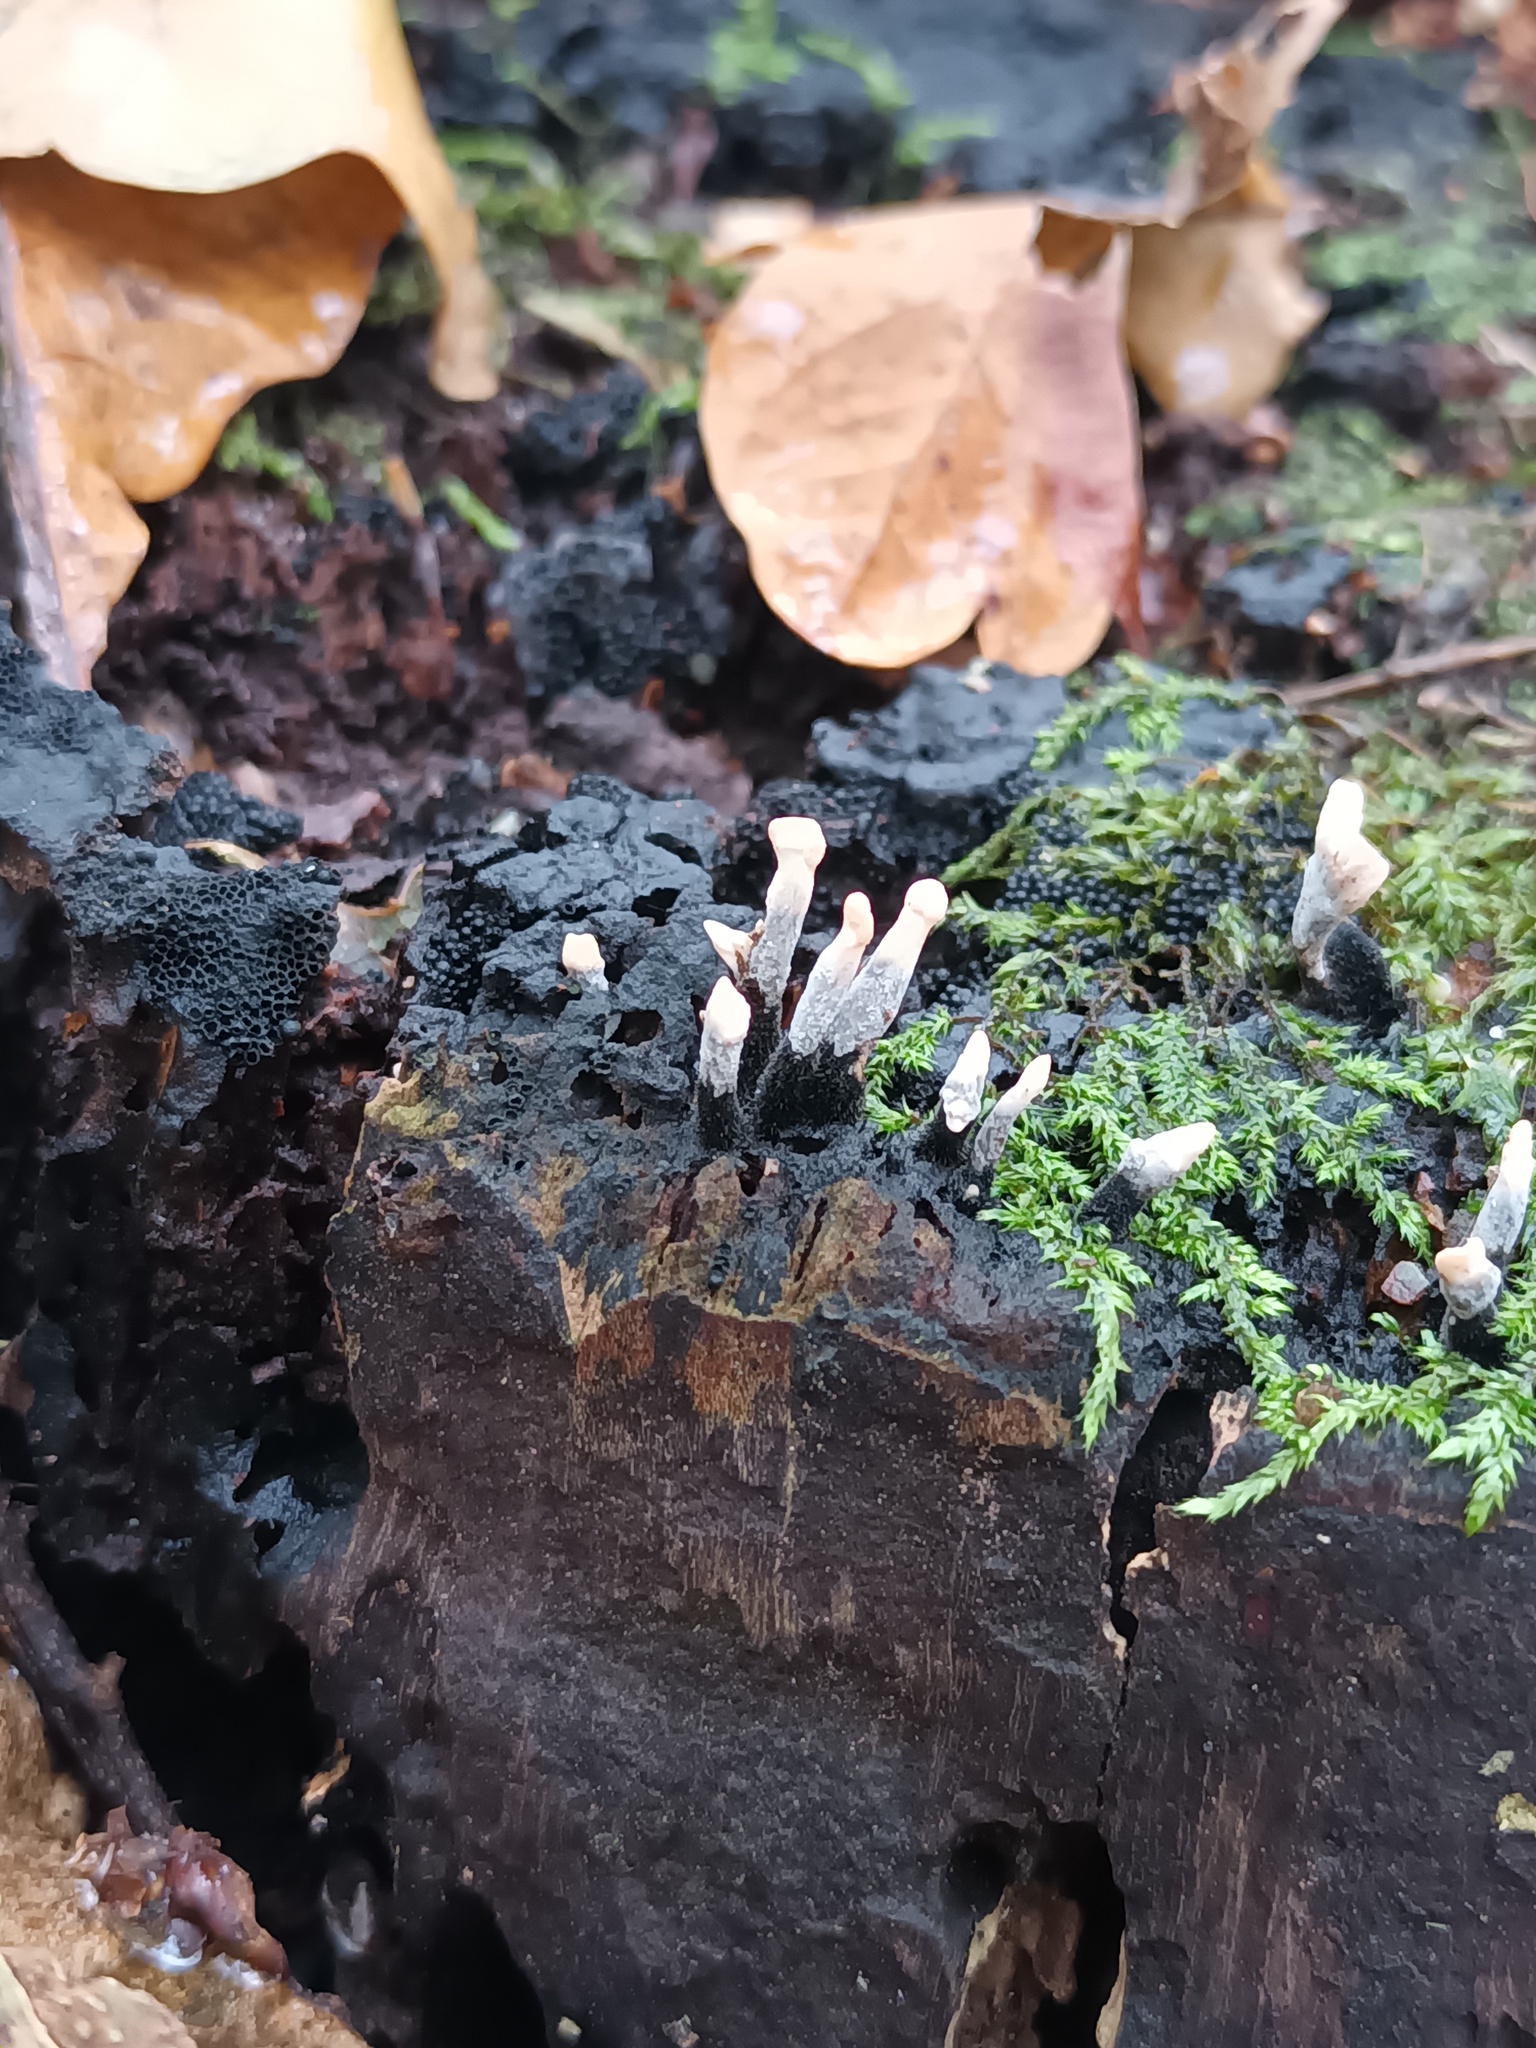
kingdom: Fungi
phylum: Ascomycota
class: Sordariomycetes
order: Xylariales
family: Xylariaceae
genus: Xylaria
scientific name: Xylaria hypoxylon
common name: Candle-snuff fungus
